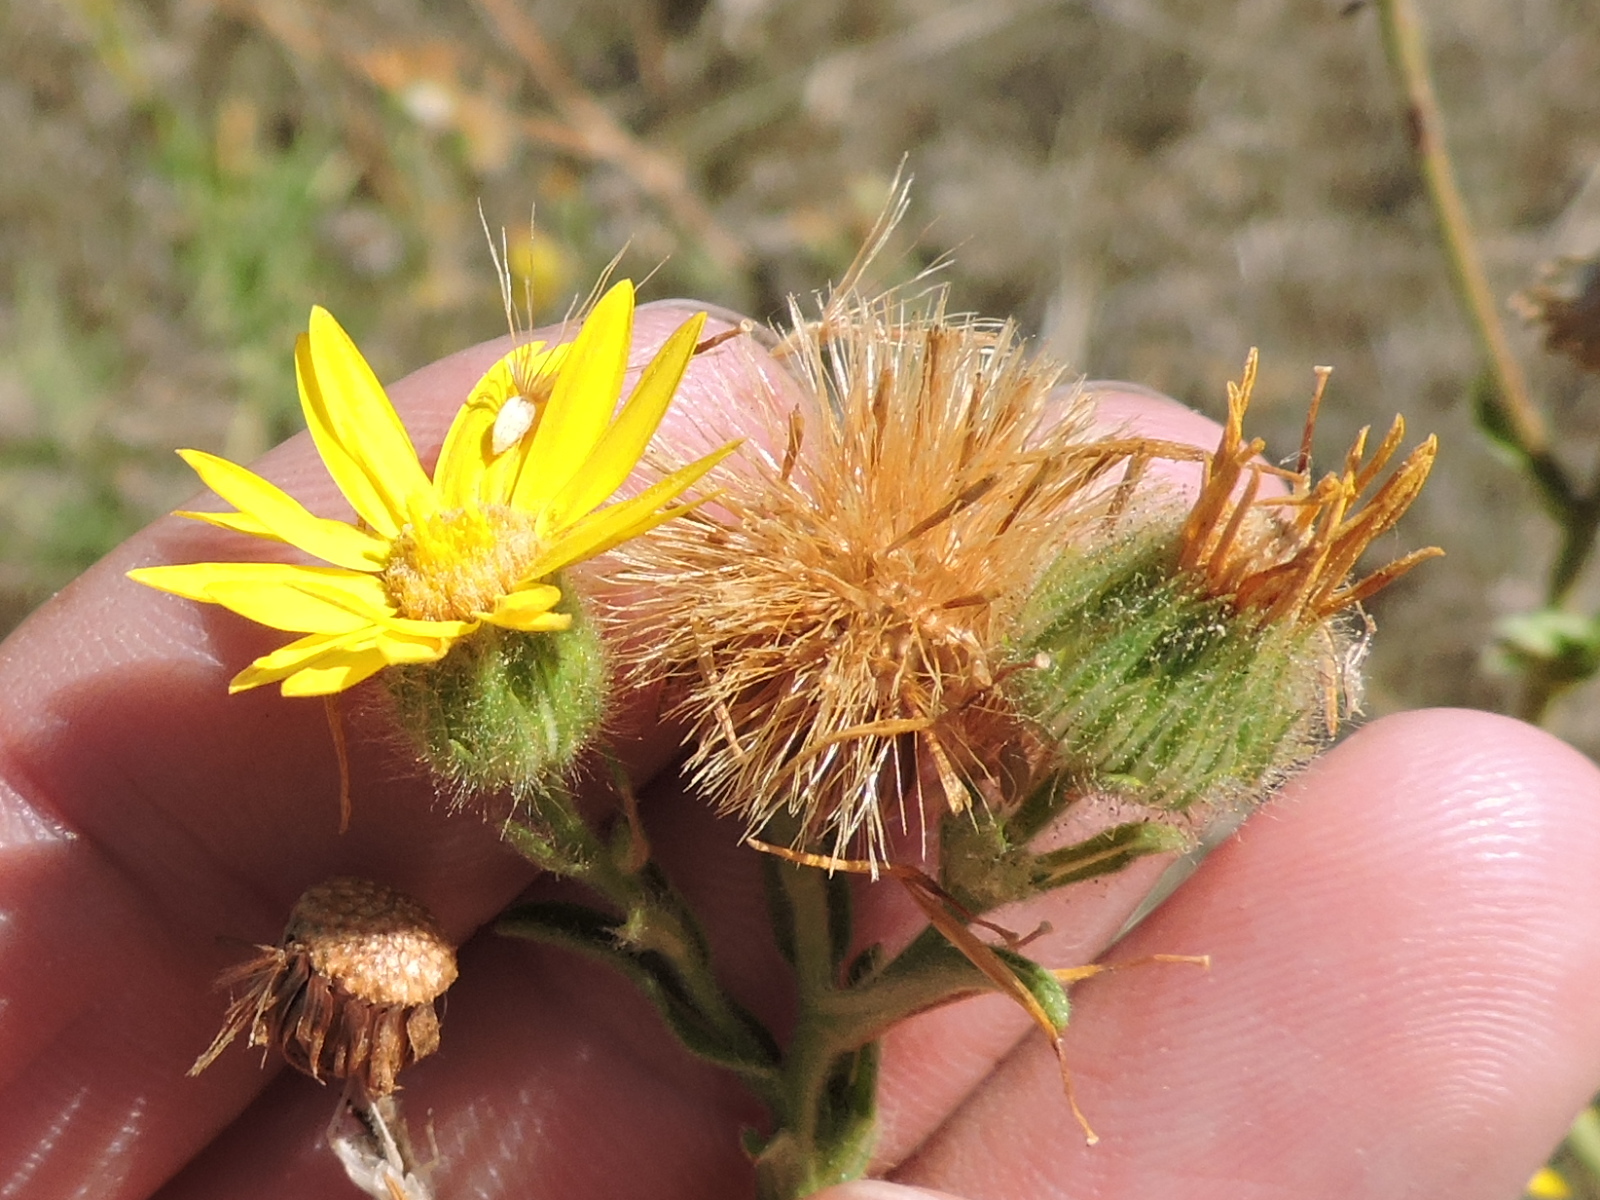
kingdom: Plantae
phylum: Tracheophyta
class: Magnoliopsida
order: Asterales
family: Asteraceae
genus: Bradburia
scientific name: Bradburia pilosa
